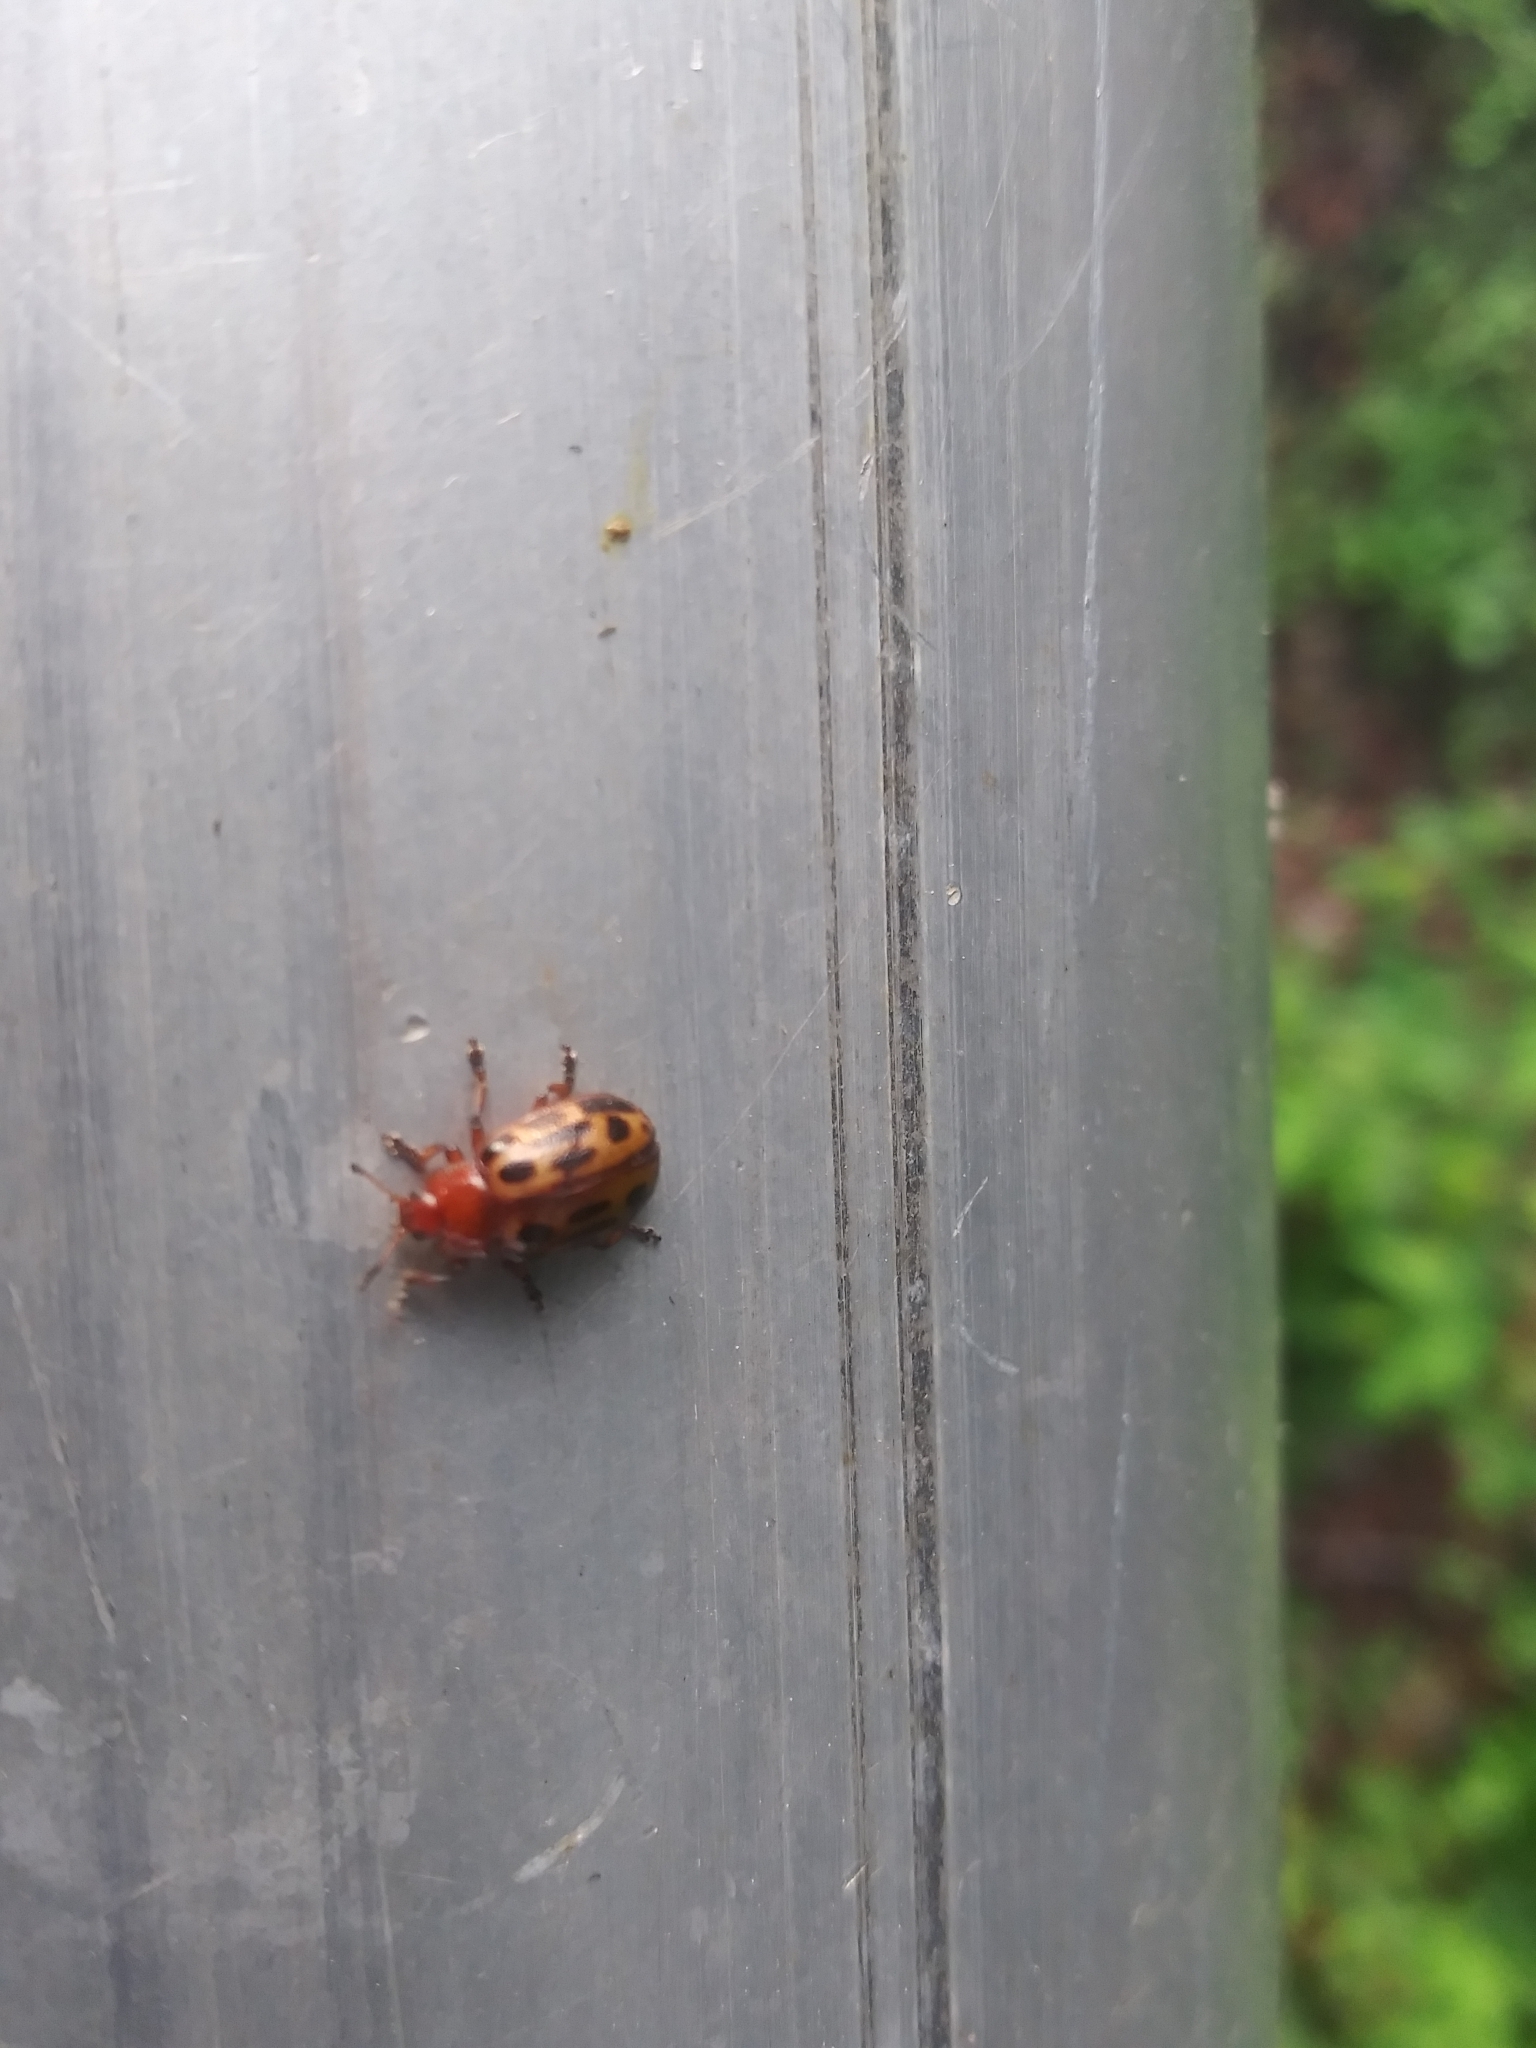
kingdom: Animalia
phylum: Arthropoda
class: Insecta
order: Coleoptera
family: Chrysomelidae
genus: Chrysomela
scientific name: Chrysomela texana
